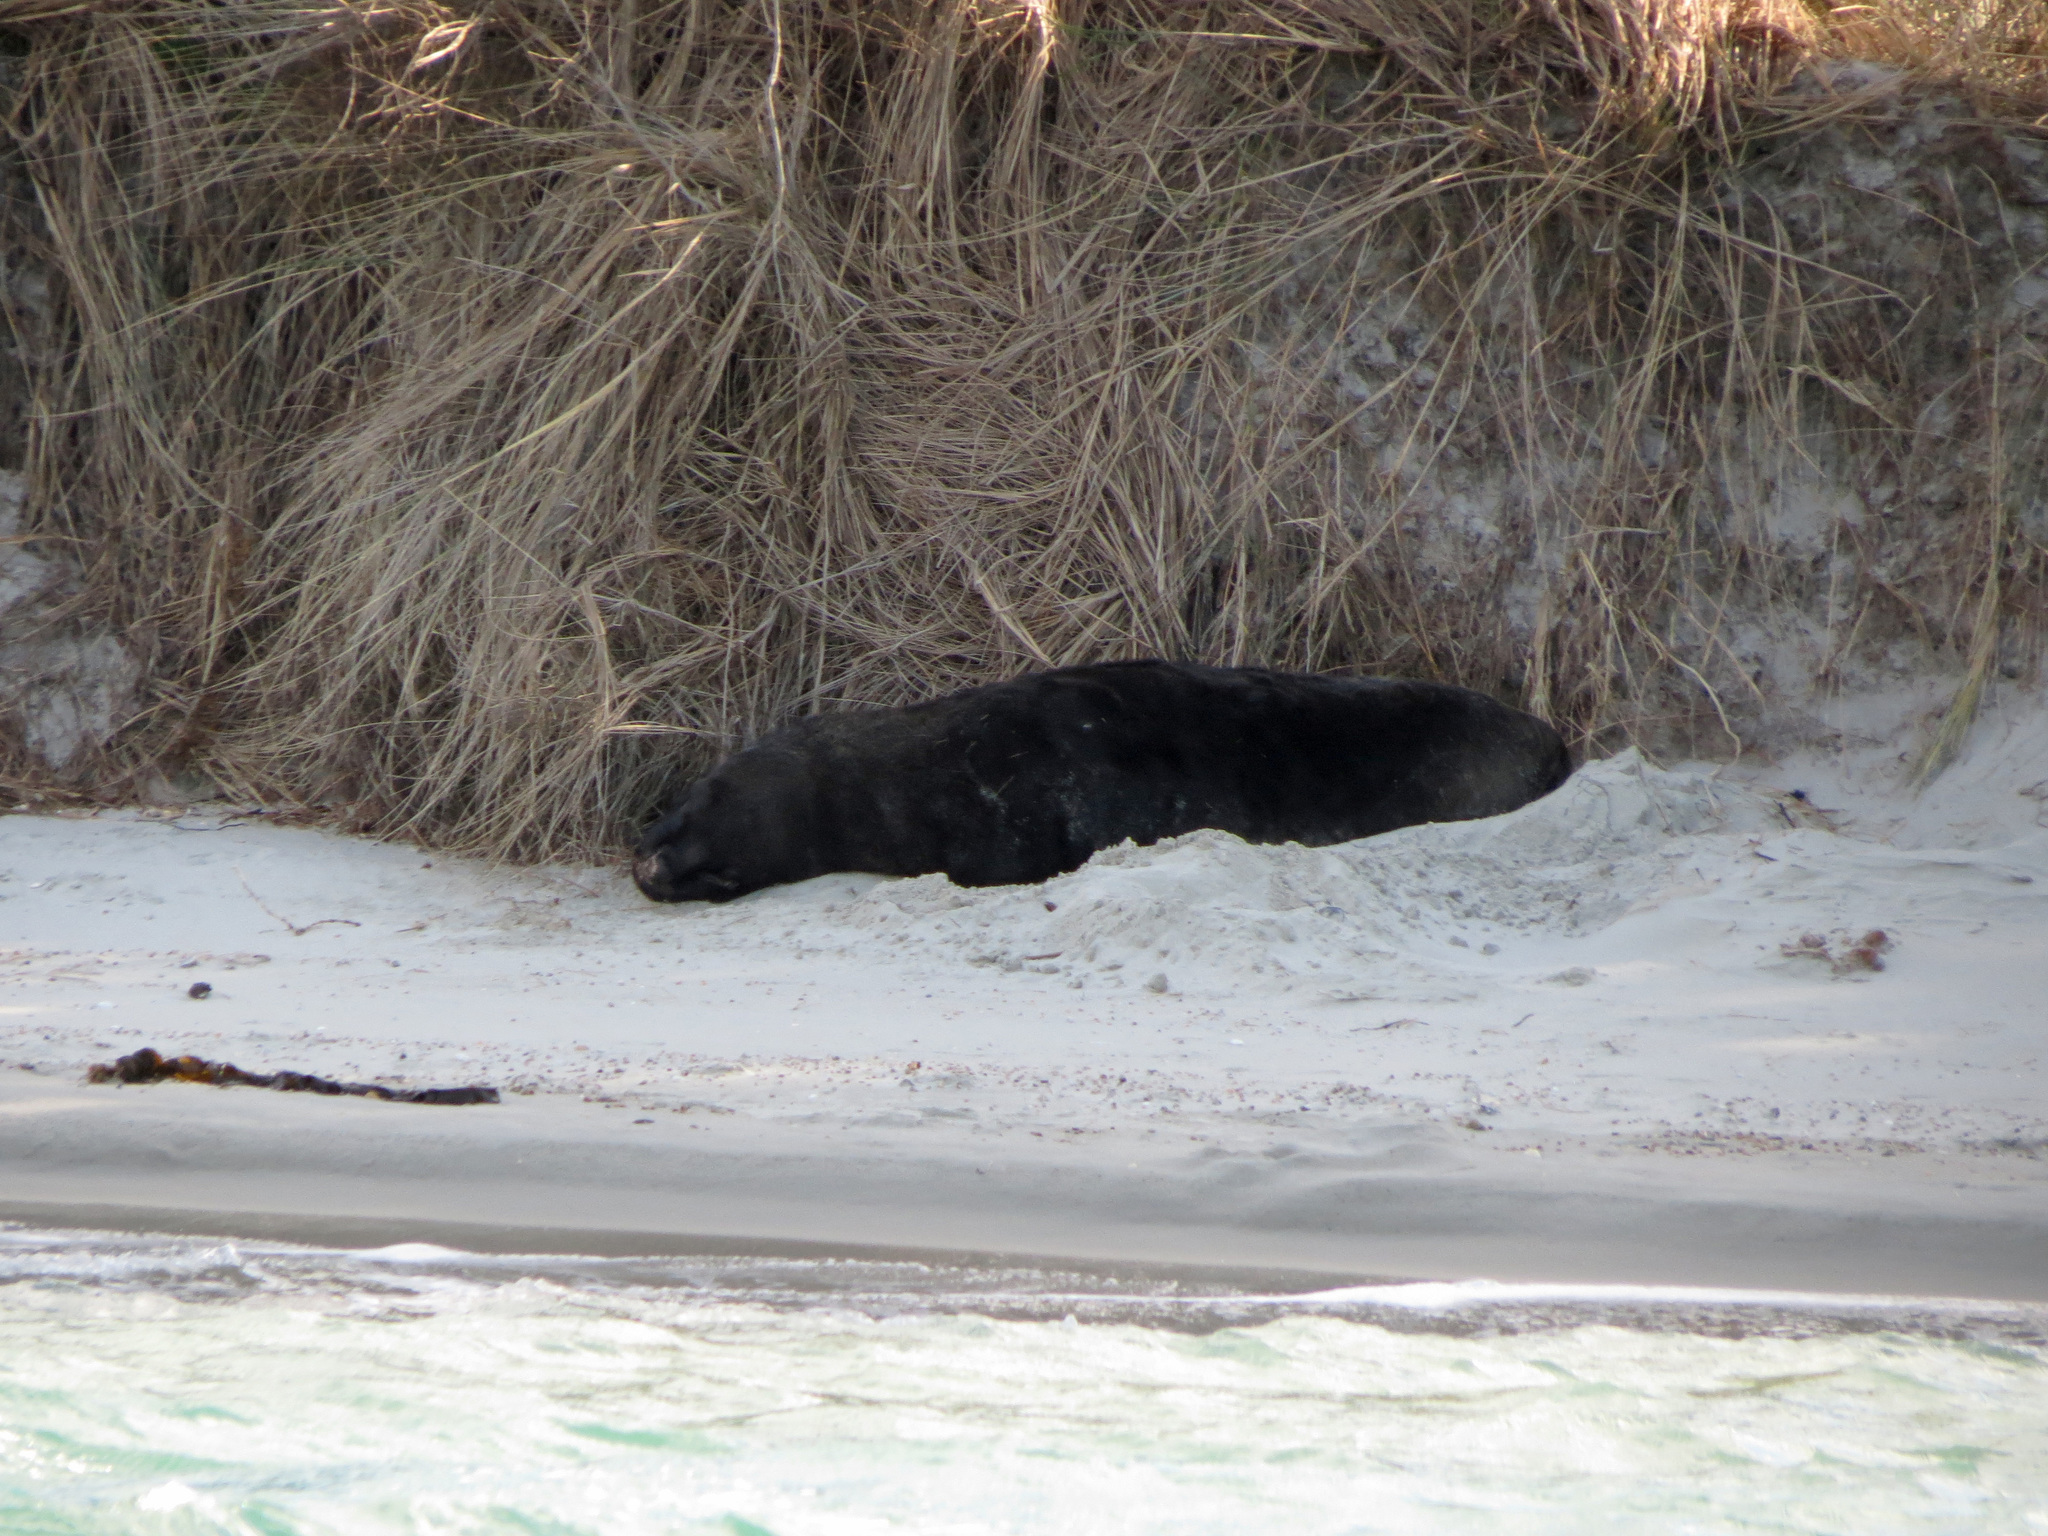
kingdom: Animalia
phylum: Chordata
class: Mammalia
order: Carnivora
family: Otariidae
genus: Phocarctos
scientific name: Phocarctos hookeri
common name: New zealand sea lion
